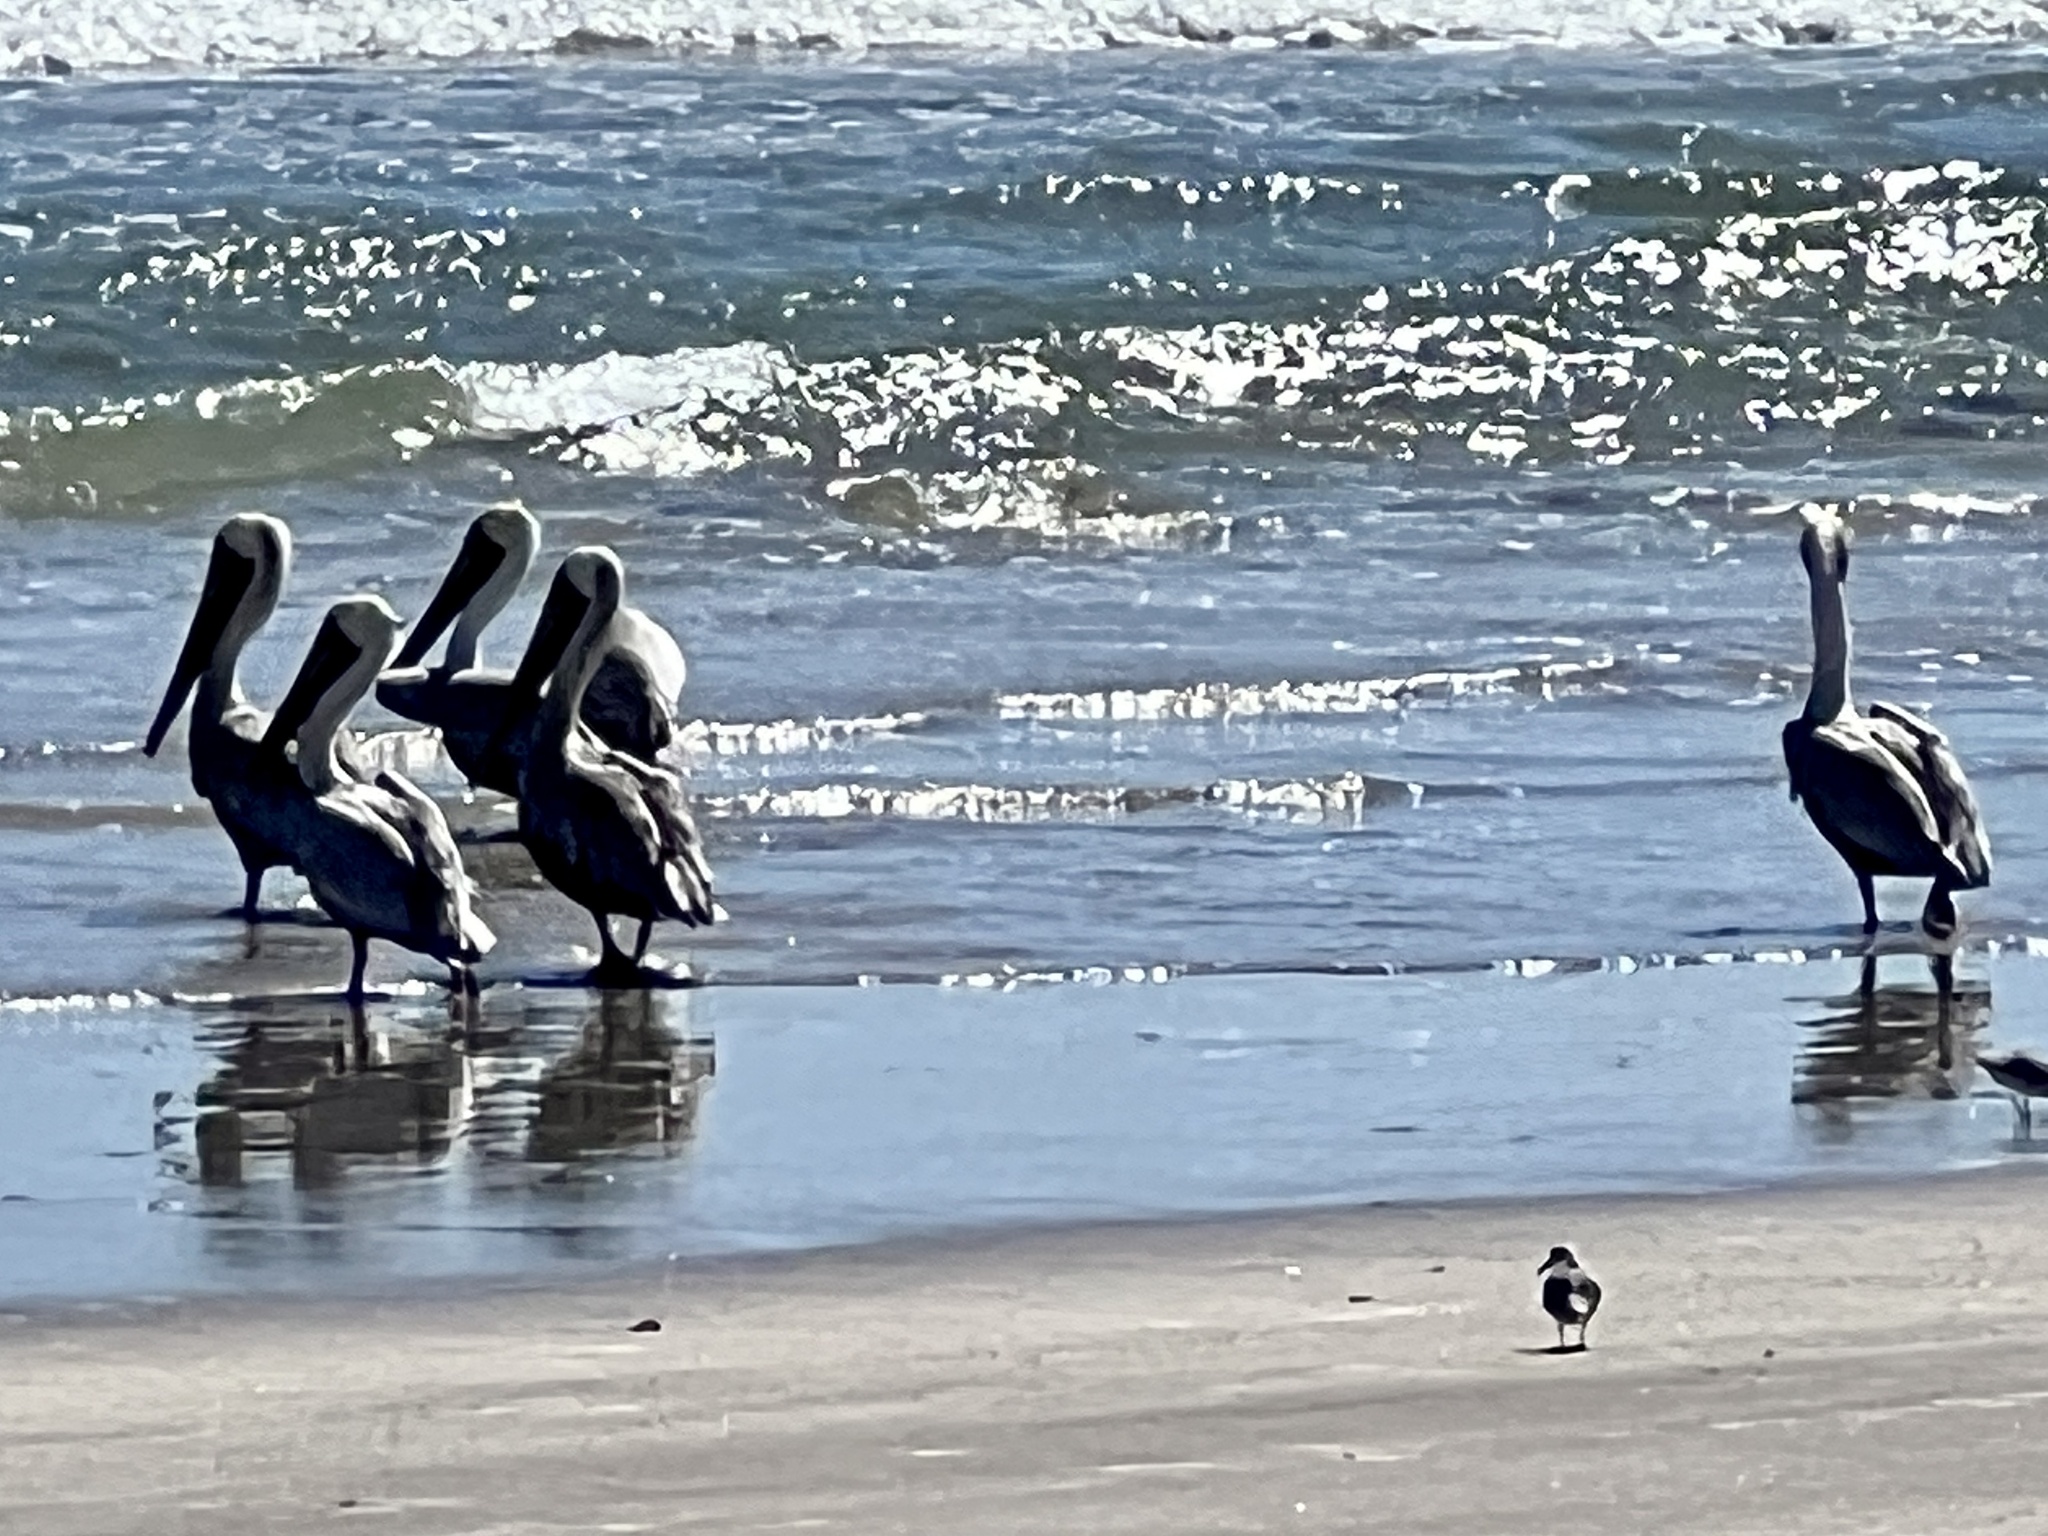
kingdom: Animalia
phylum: Chordata
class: Aves
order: Pelecaniformes
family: Pelecanidae
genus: Pelecanus
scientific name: Pelecanus occidentalis
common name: Brown pelican
